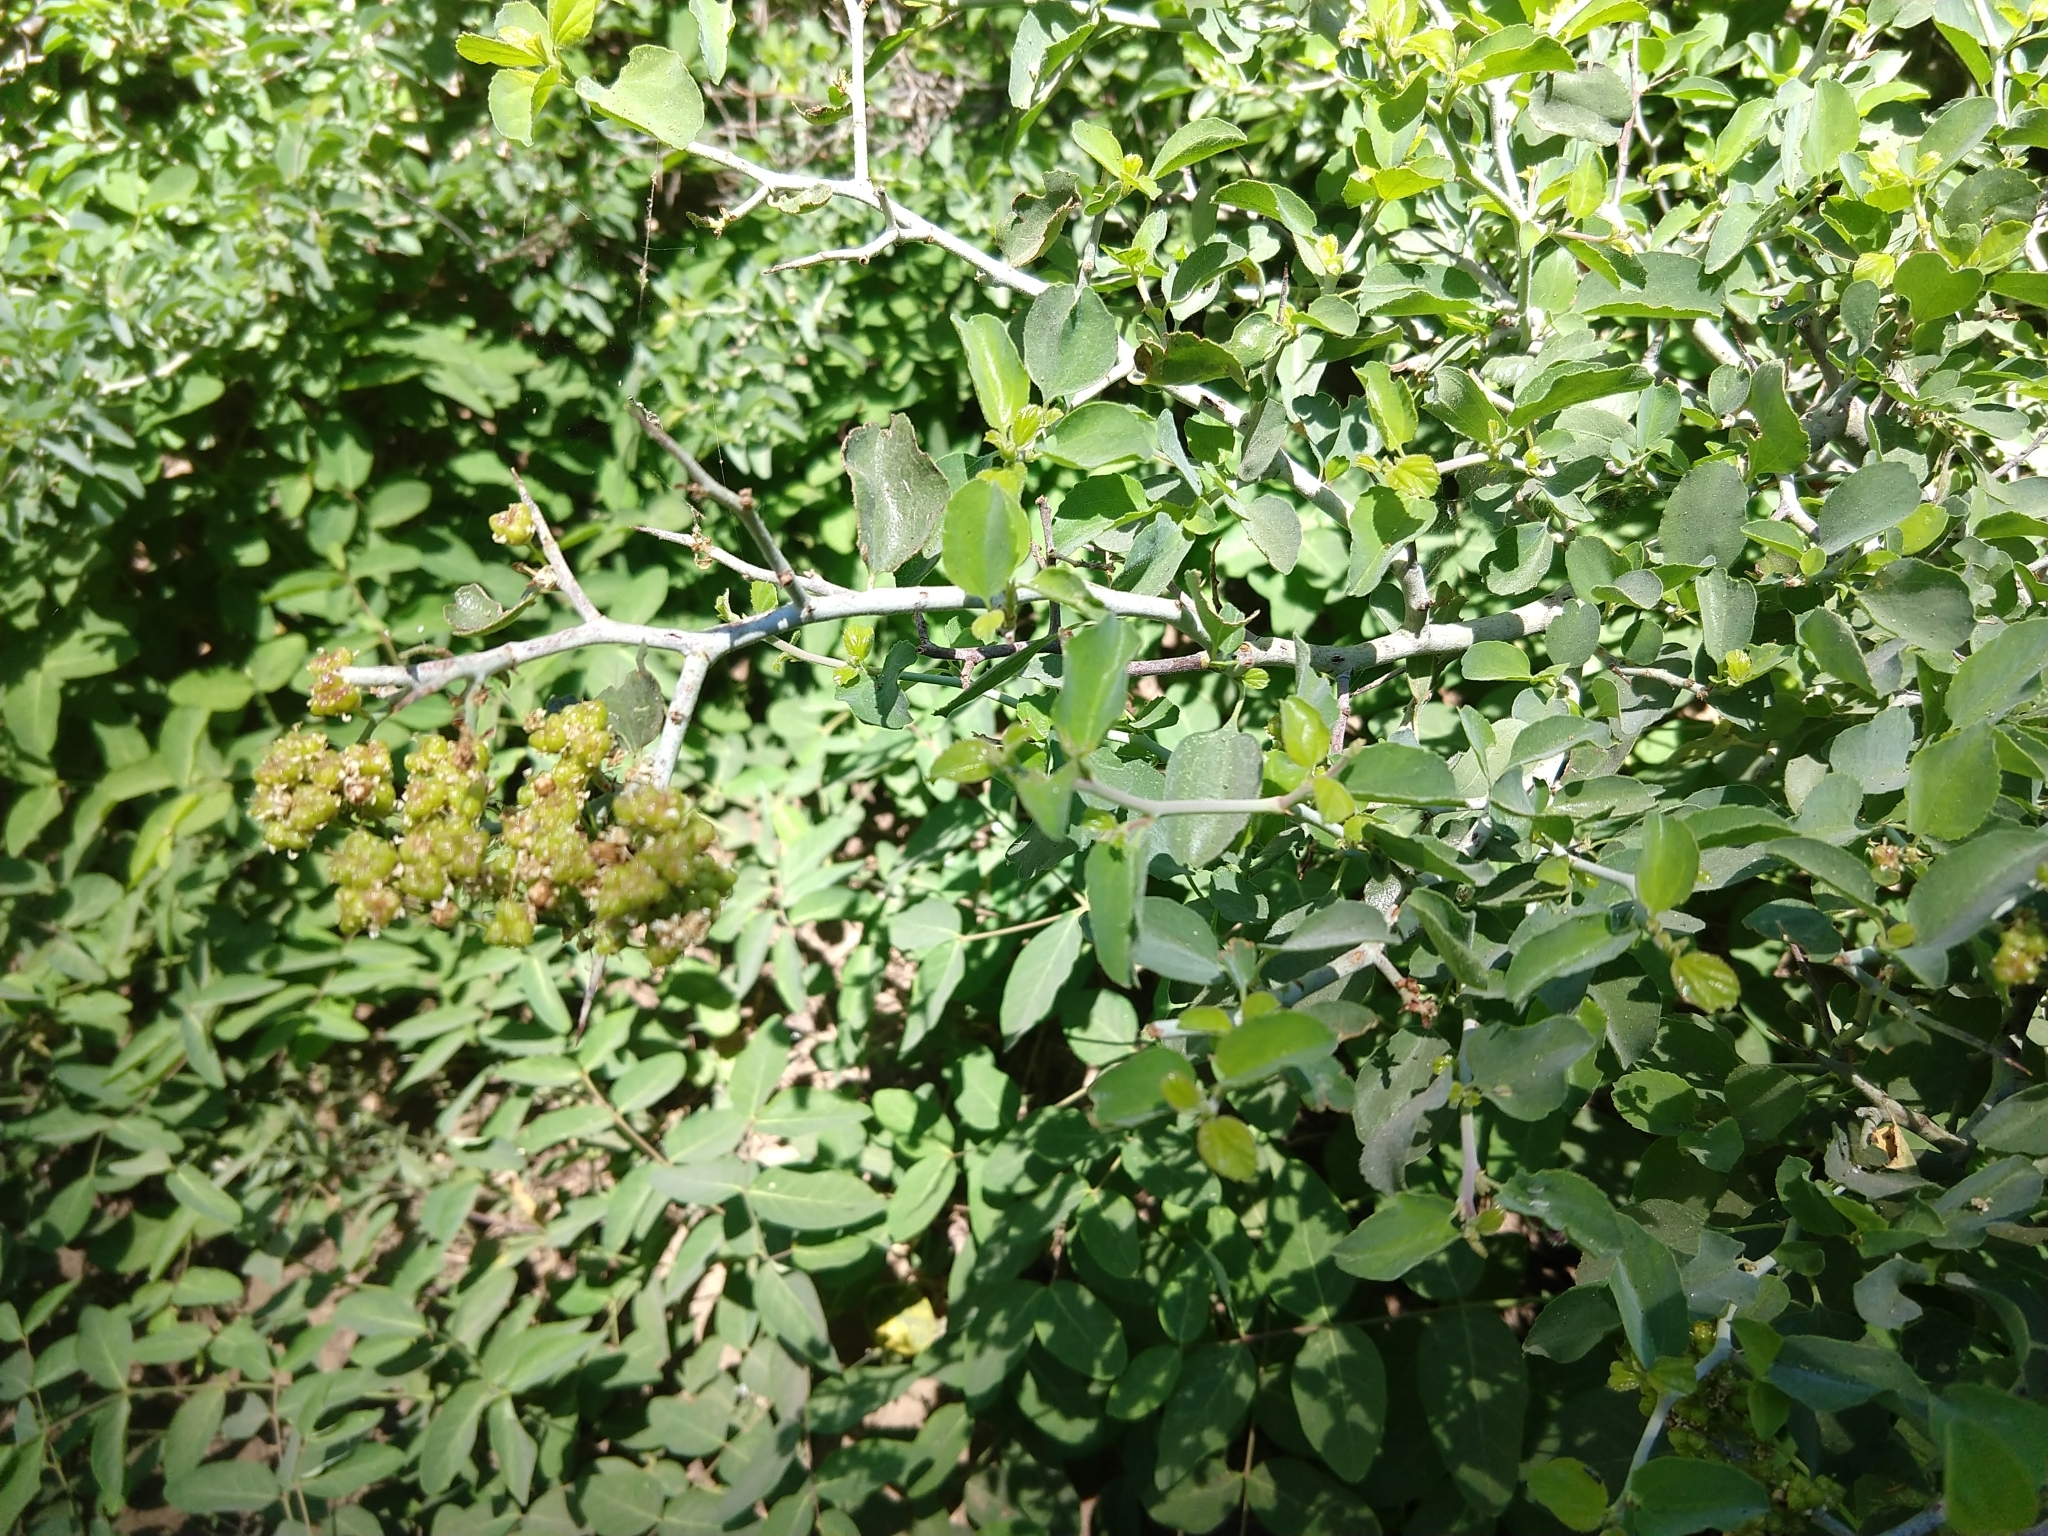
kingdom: Plantae
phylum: Tracheophyta
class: Magnoliopsida
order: Rosales
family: Rhamnaceae
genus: Ceanothus
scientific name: Ceanothus cordulatus
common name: Mountain whitethorn
